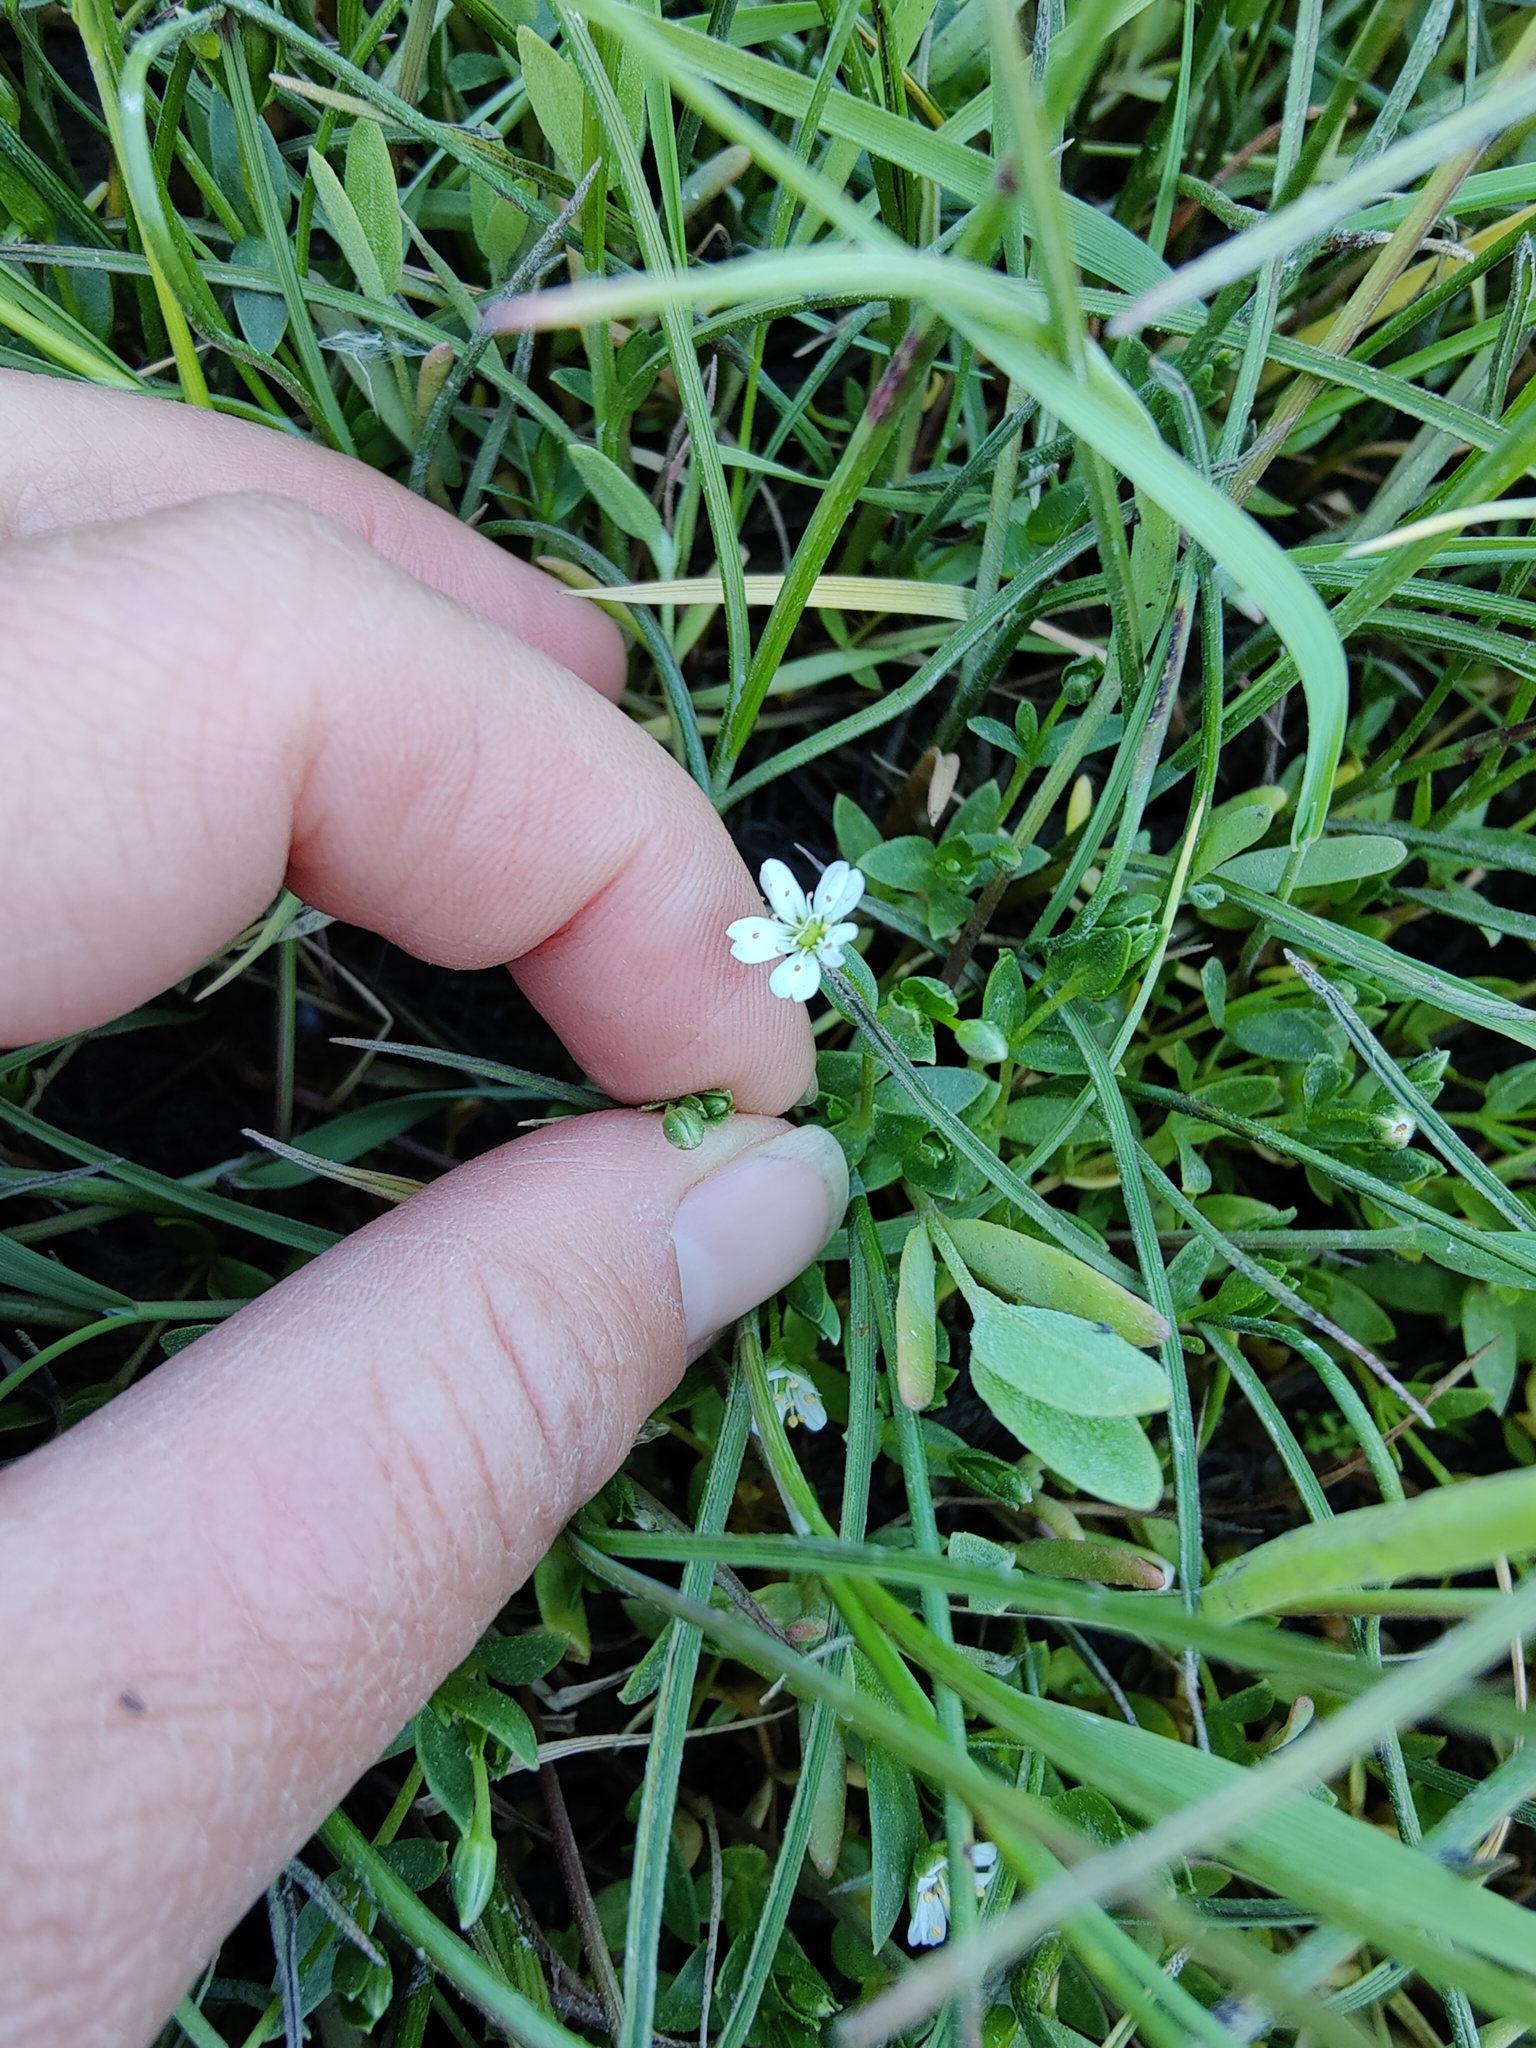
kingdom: Plantae
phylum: Tracheophyta
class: Magnoliopsida
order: Caryophyllales
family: Caryophyllaceae
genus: Stellaria
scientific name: Stellaria humifusa
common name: Creeping starwort
